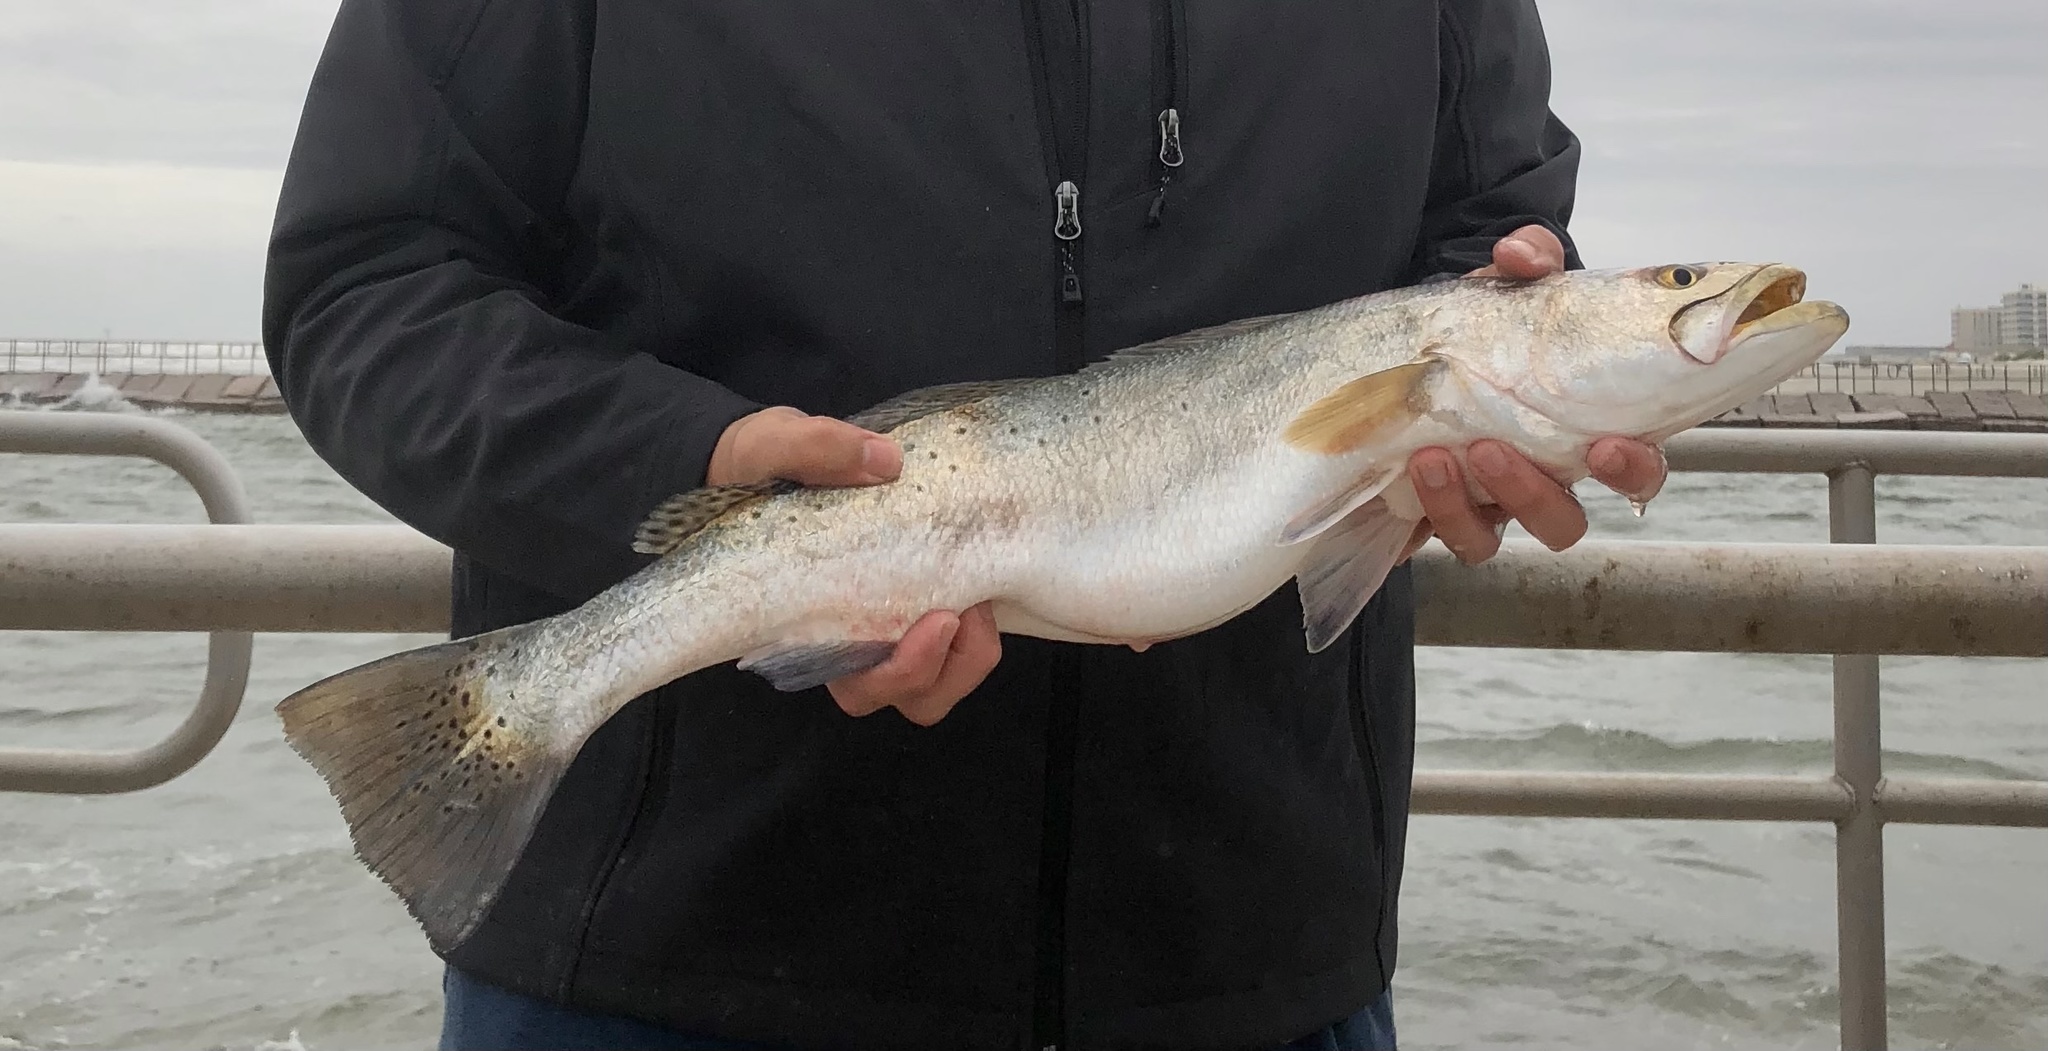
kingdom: Animalia
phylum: Chordata
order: Perciformes
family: Sciaenidae
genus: Cynoscion
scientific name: Cynoscion nebulosus
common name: Spotted seatrout
